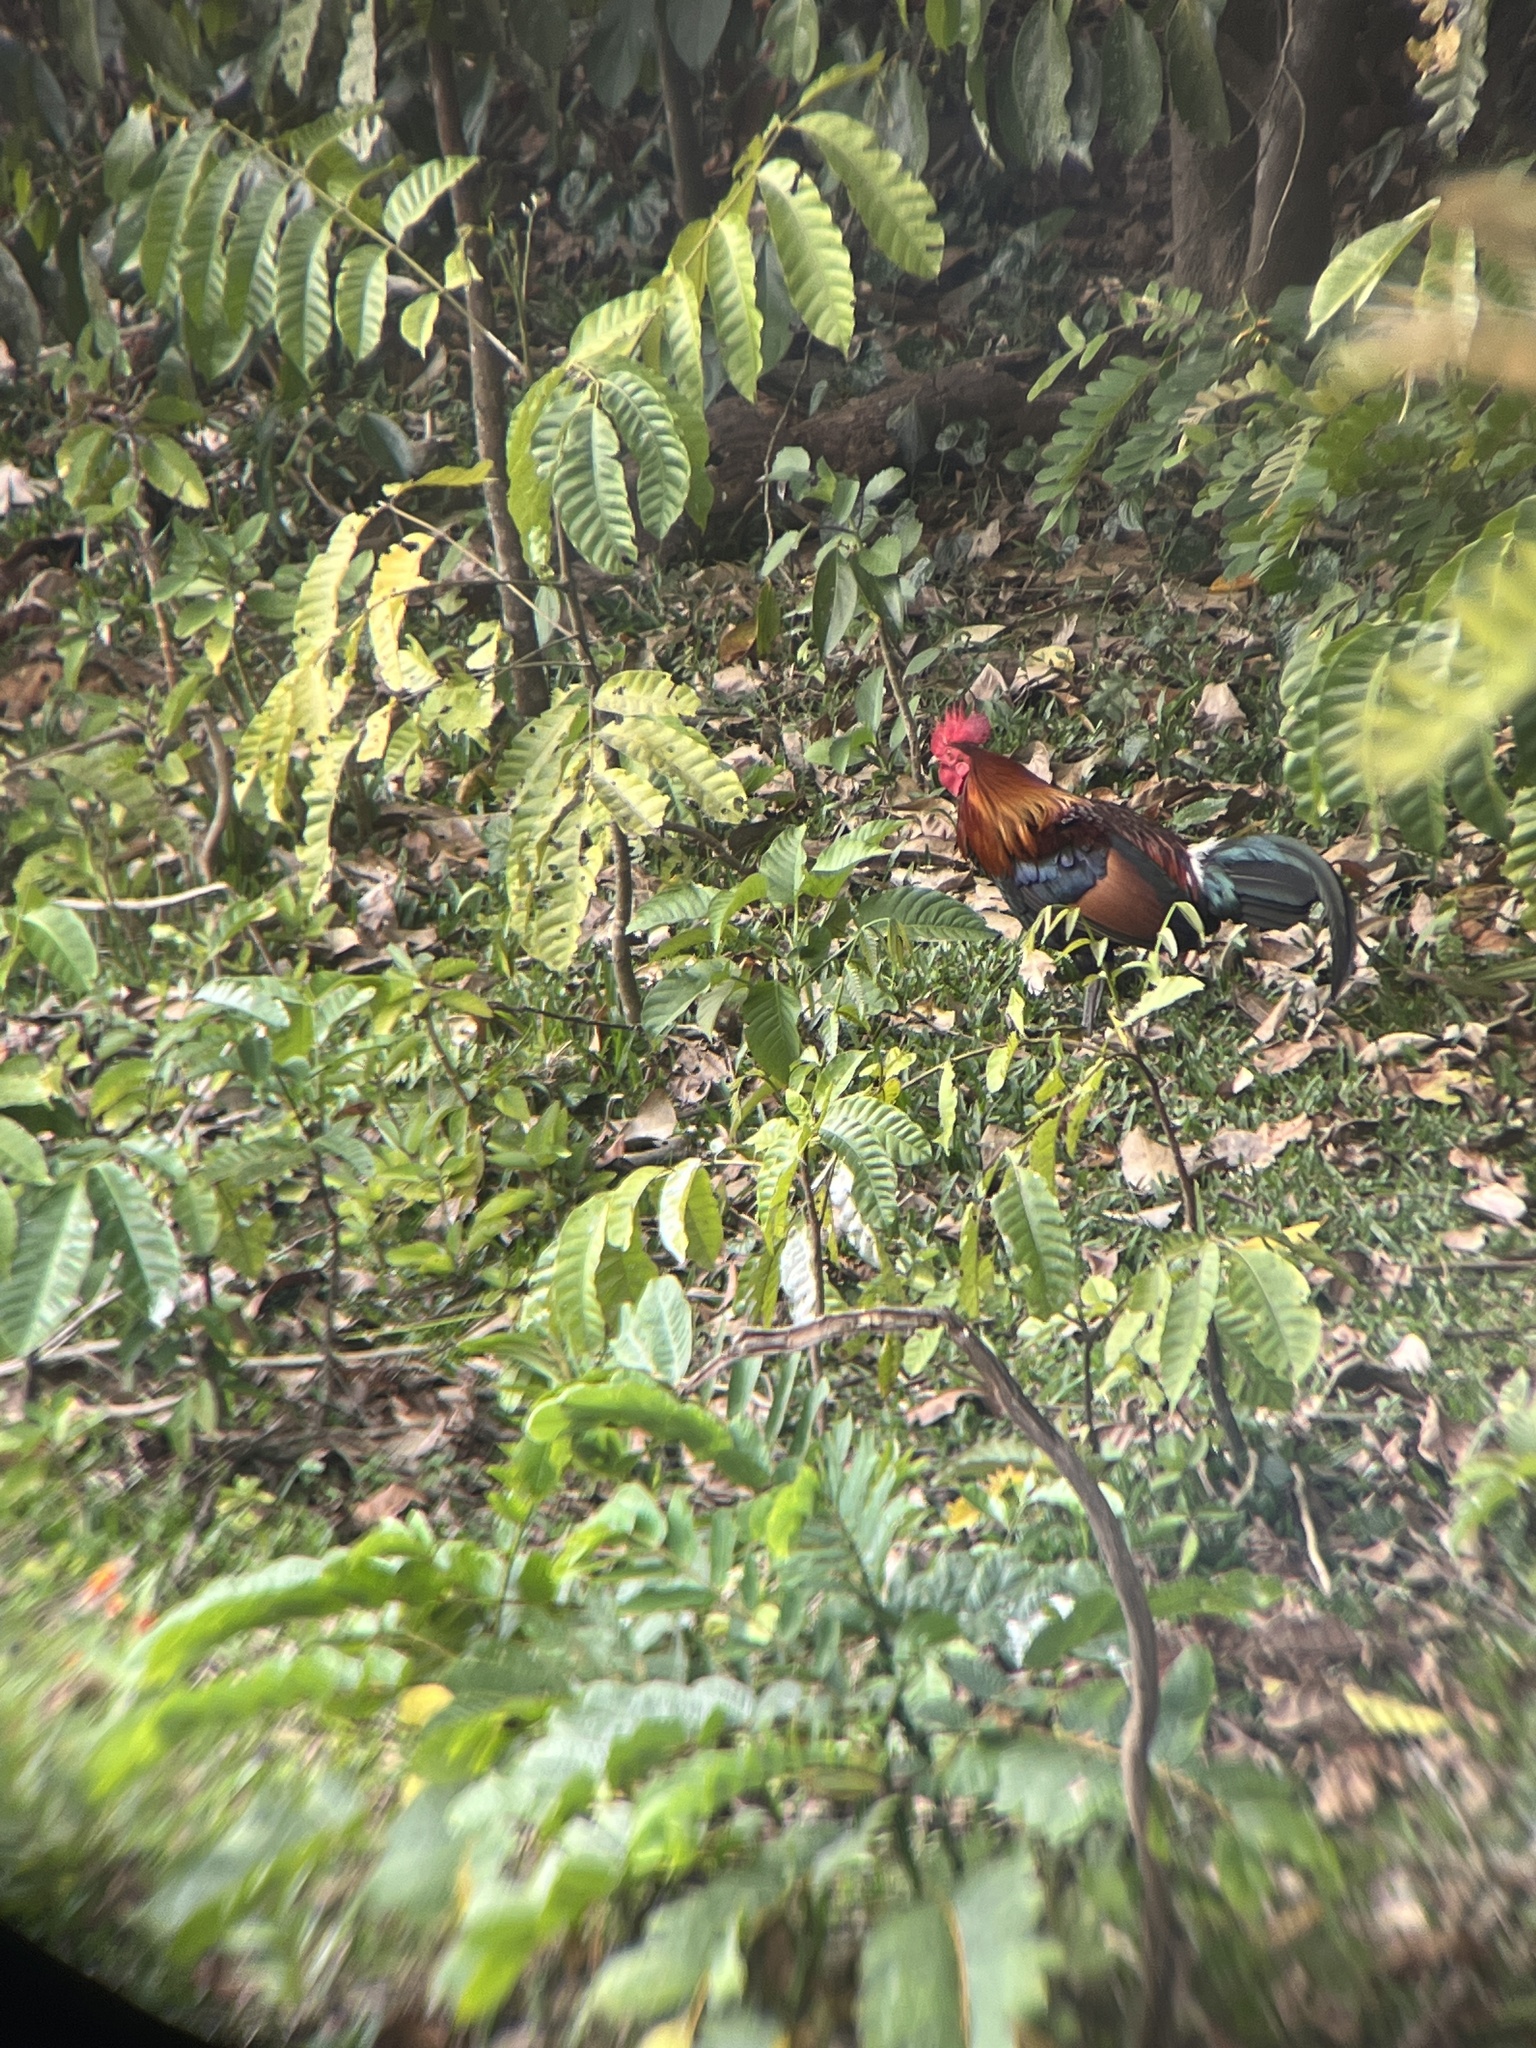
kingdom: Animalia
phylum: Chordata
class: Aves
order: Galliformes
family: Phasianidae
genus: Gallus
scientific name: Gallus gallus
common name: Red junglefowl
